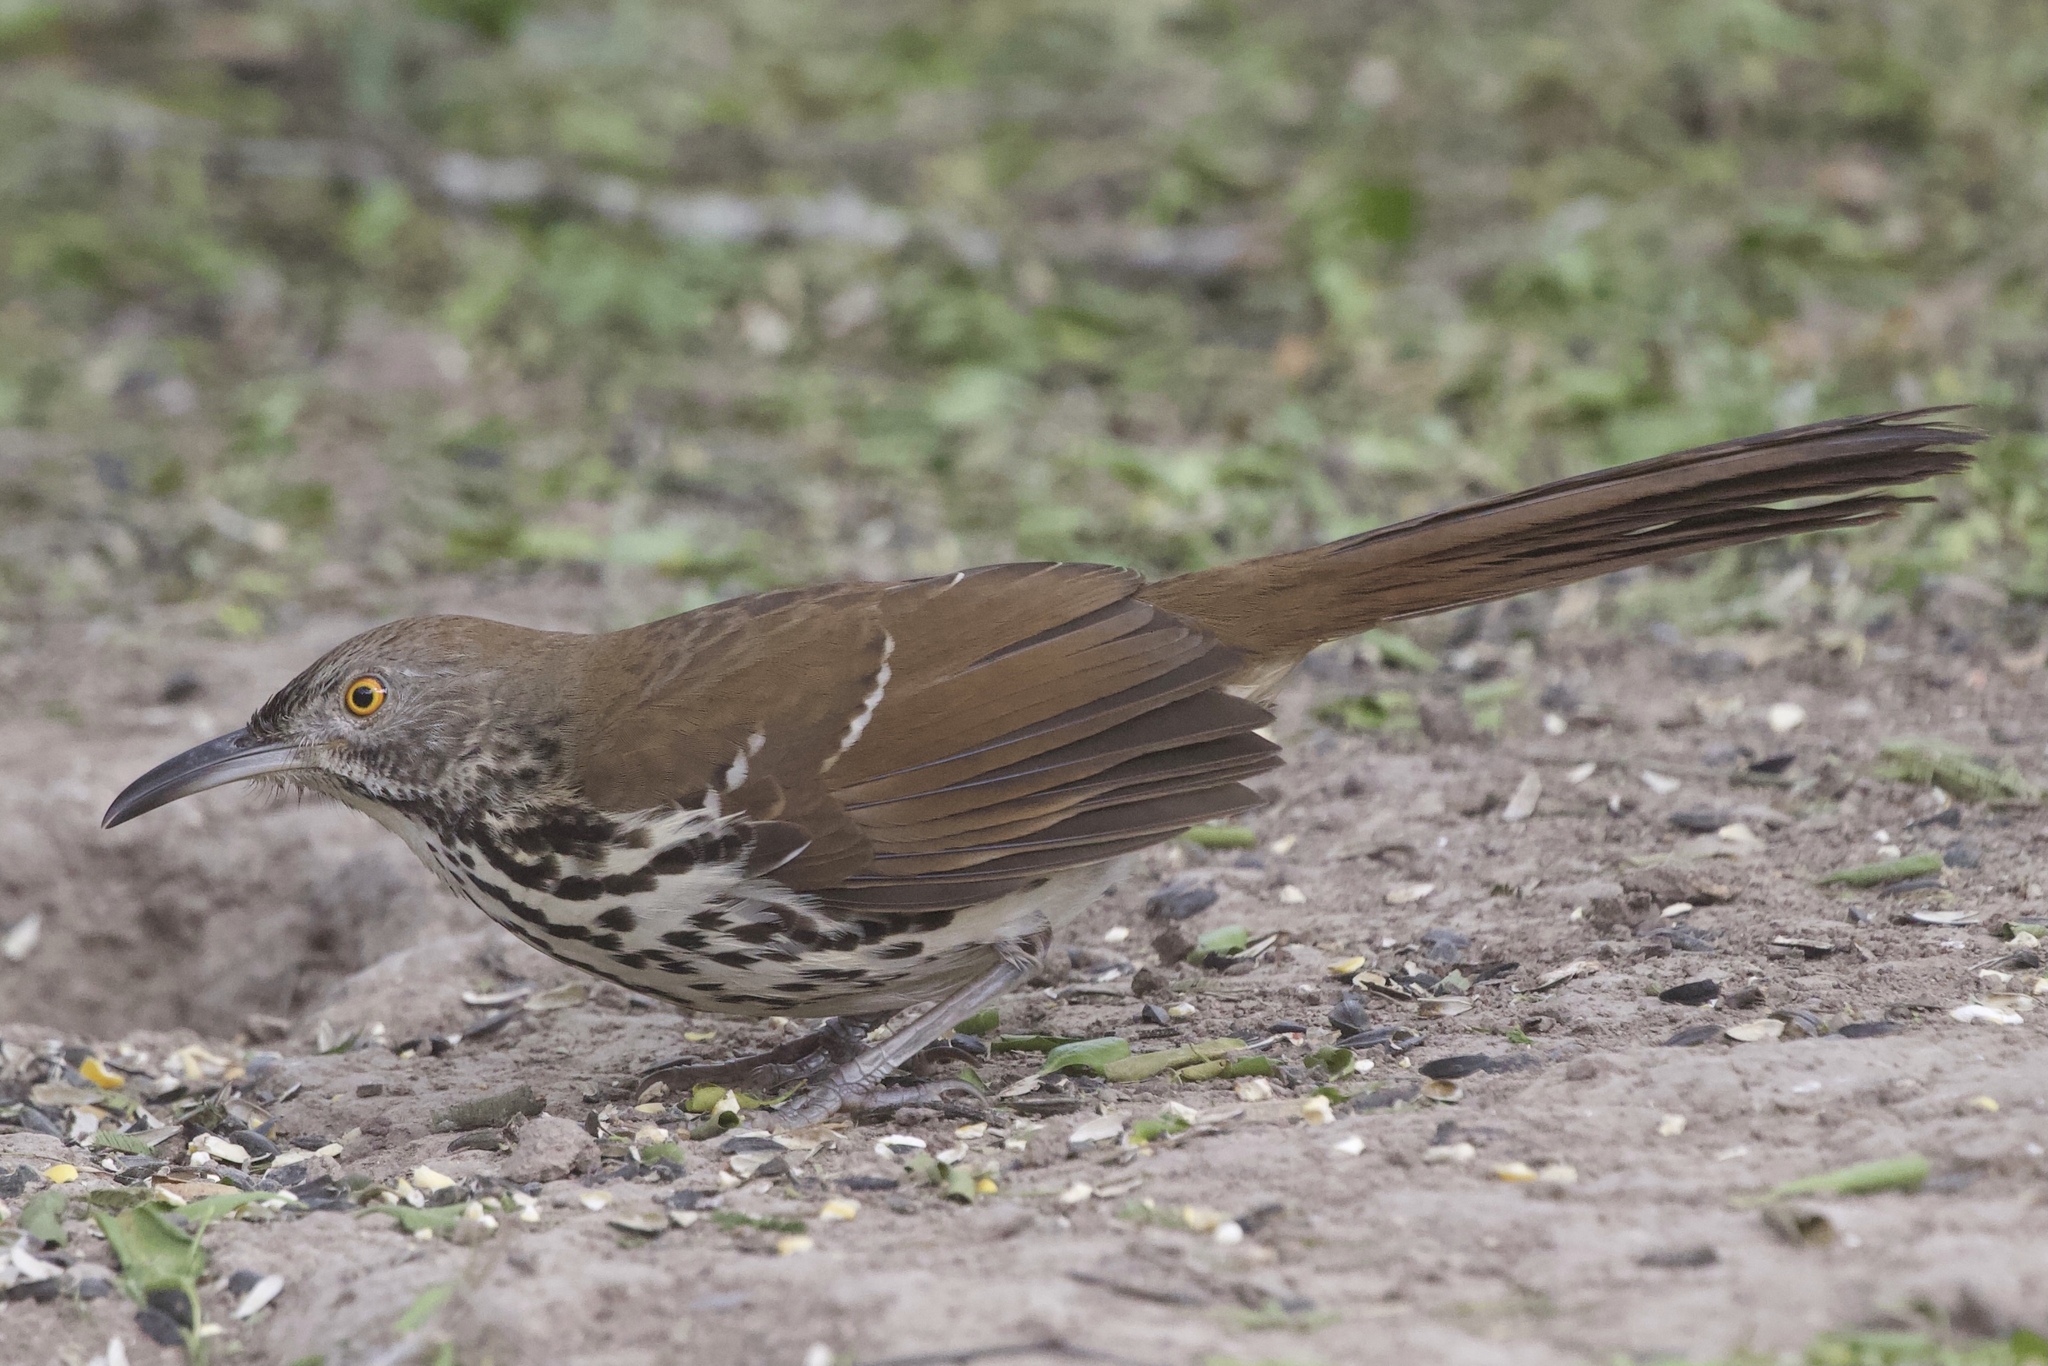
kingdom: Animalia
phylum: Chordata
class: Aves
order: Passeriformes
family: Mimidae
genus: Toxostoma
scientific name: Toxostoma longirostre
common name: Long-billed thrasher
